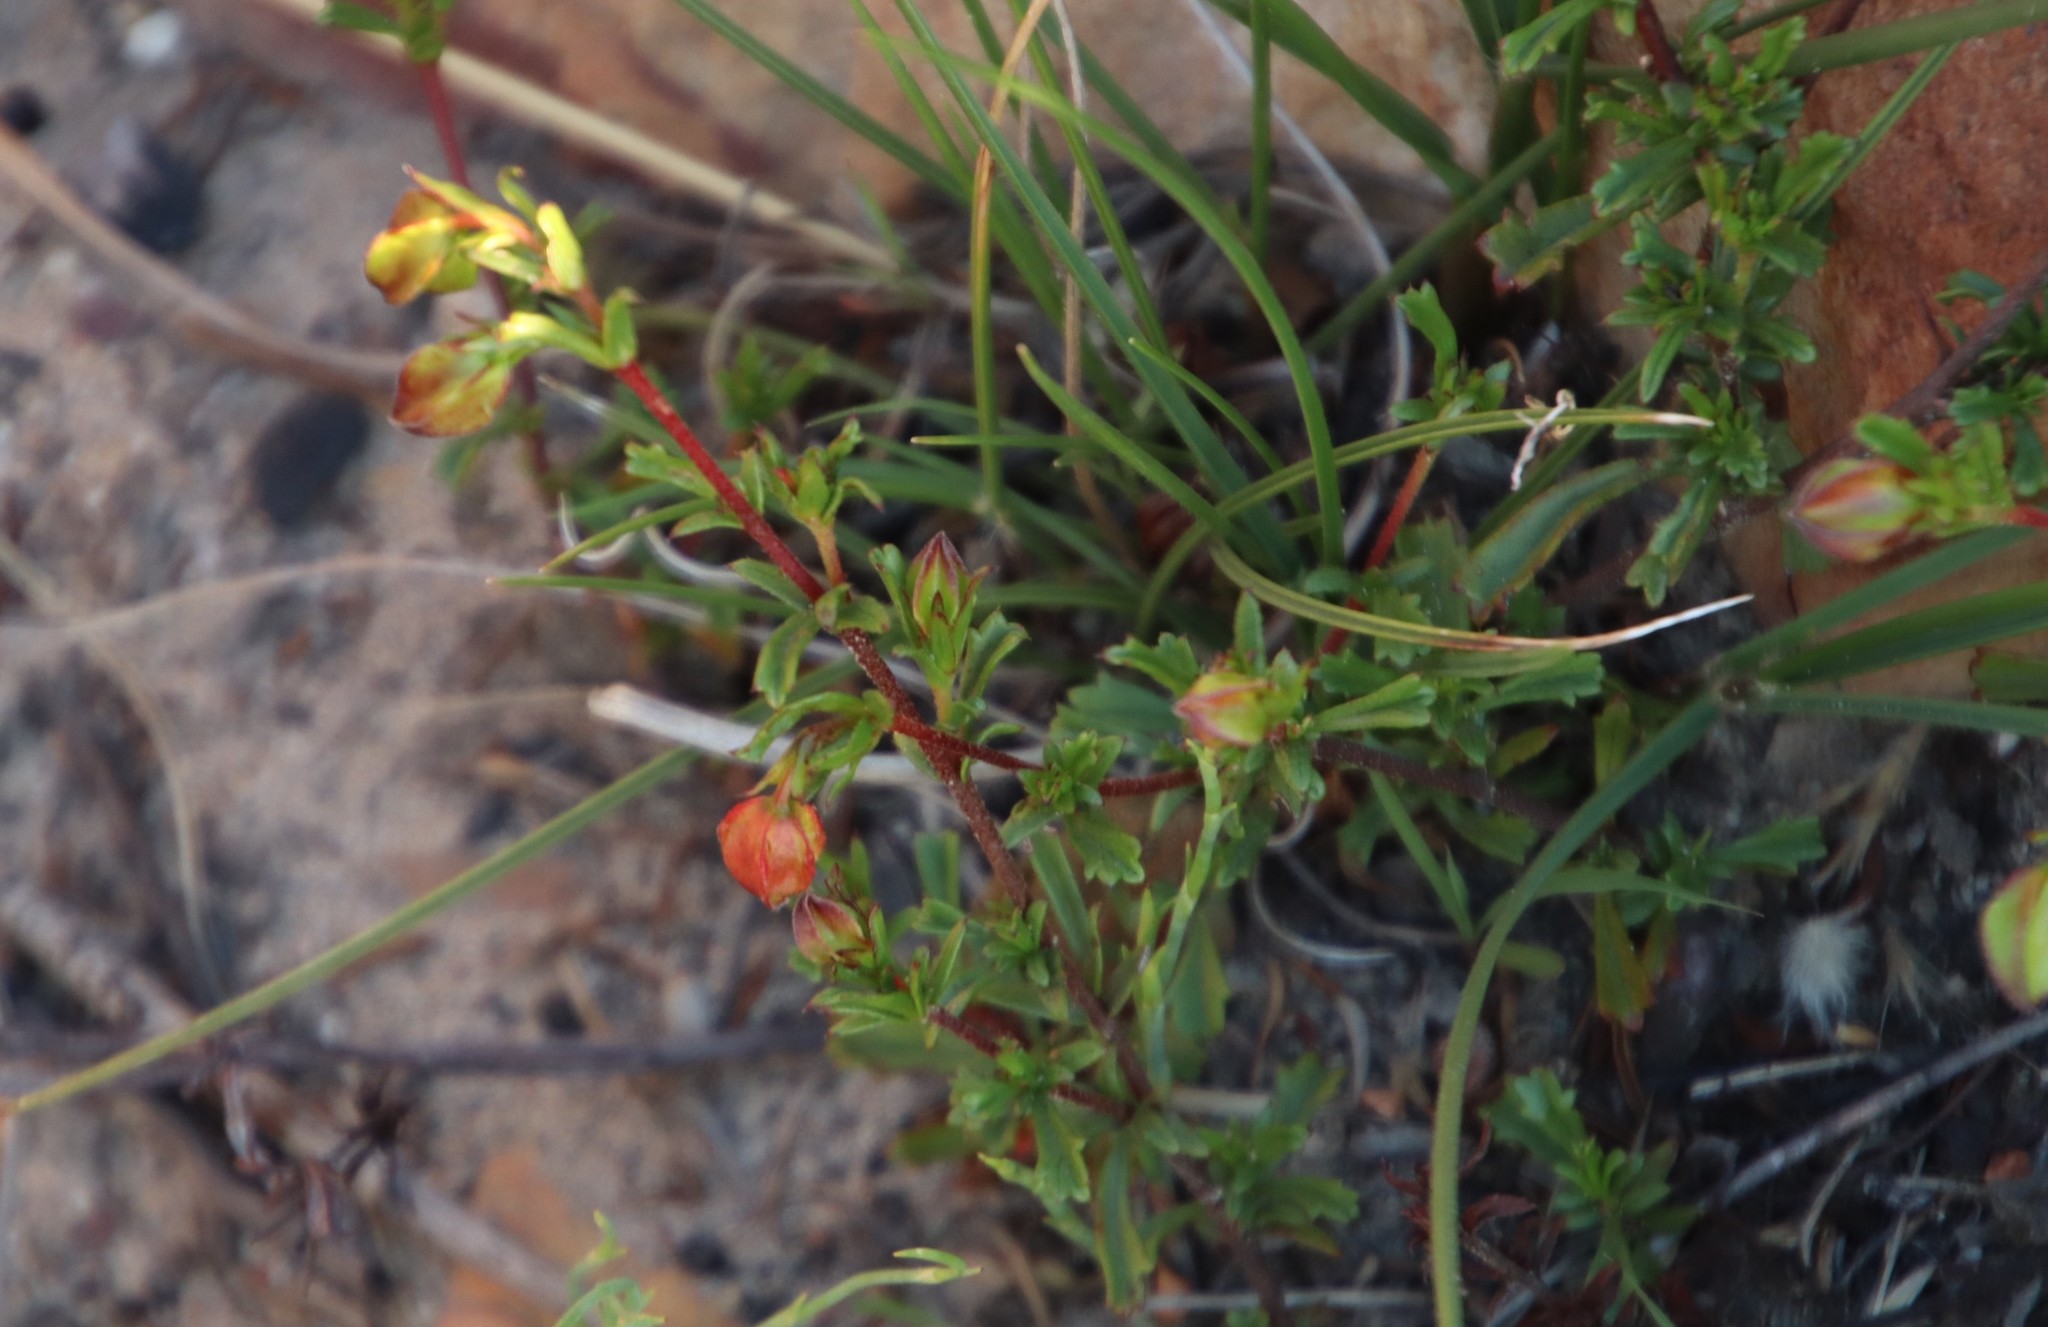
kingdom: Plantae
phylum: Tracheophyta
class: Magnoliopsida
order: Malvales
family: Malvaceae
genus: Hermannia
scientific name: Hermannia angularis
